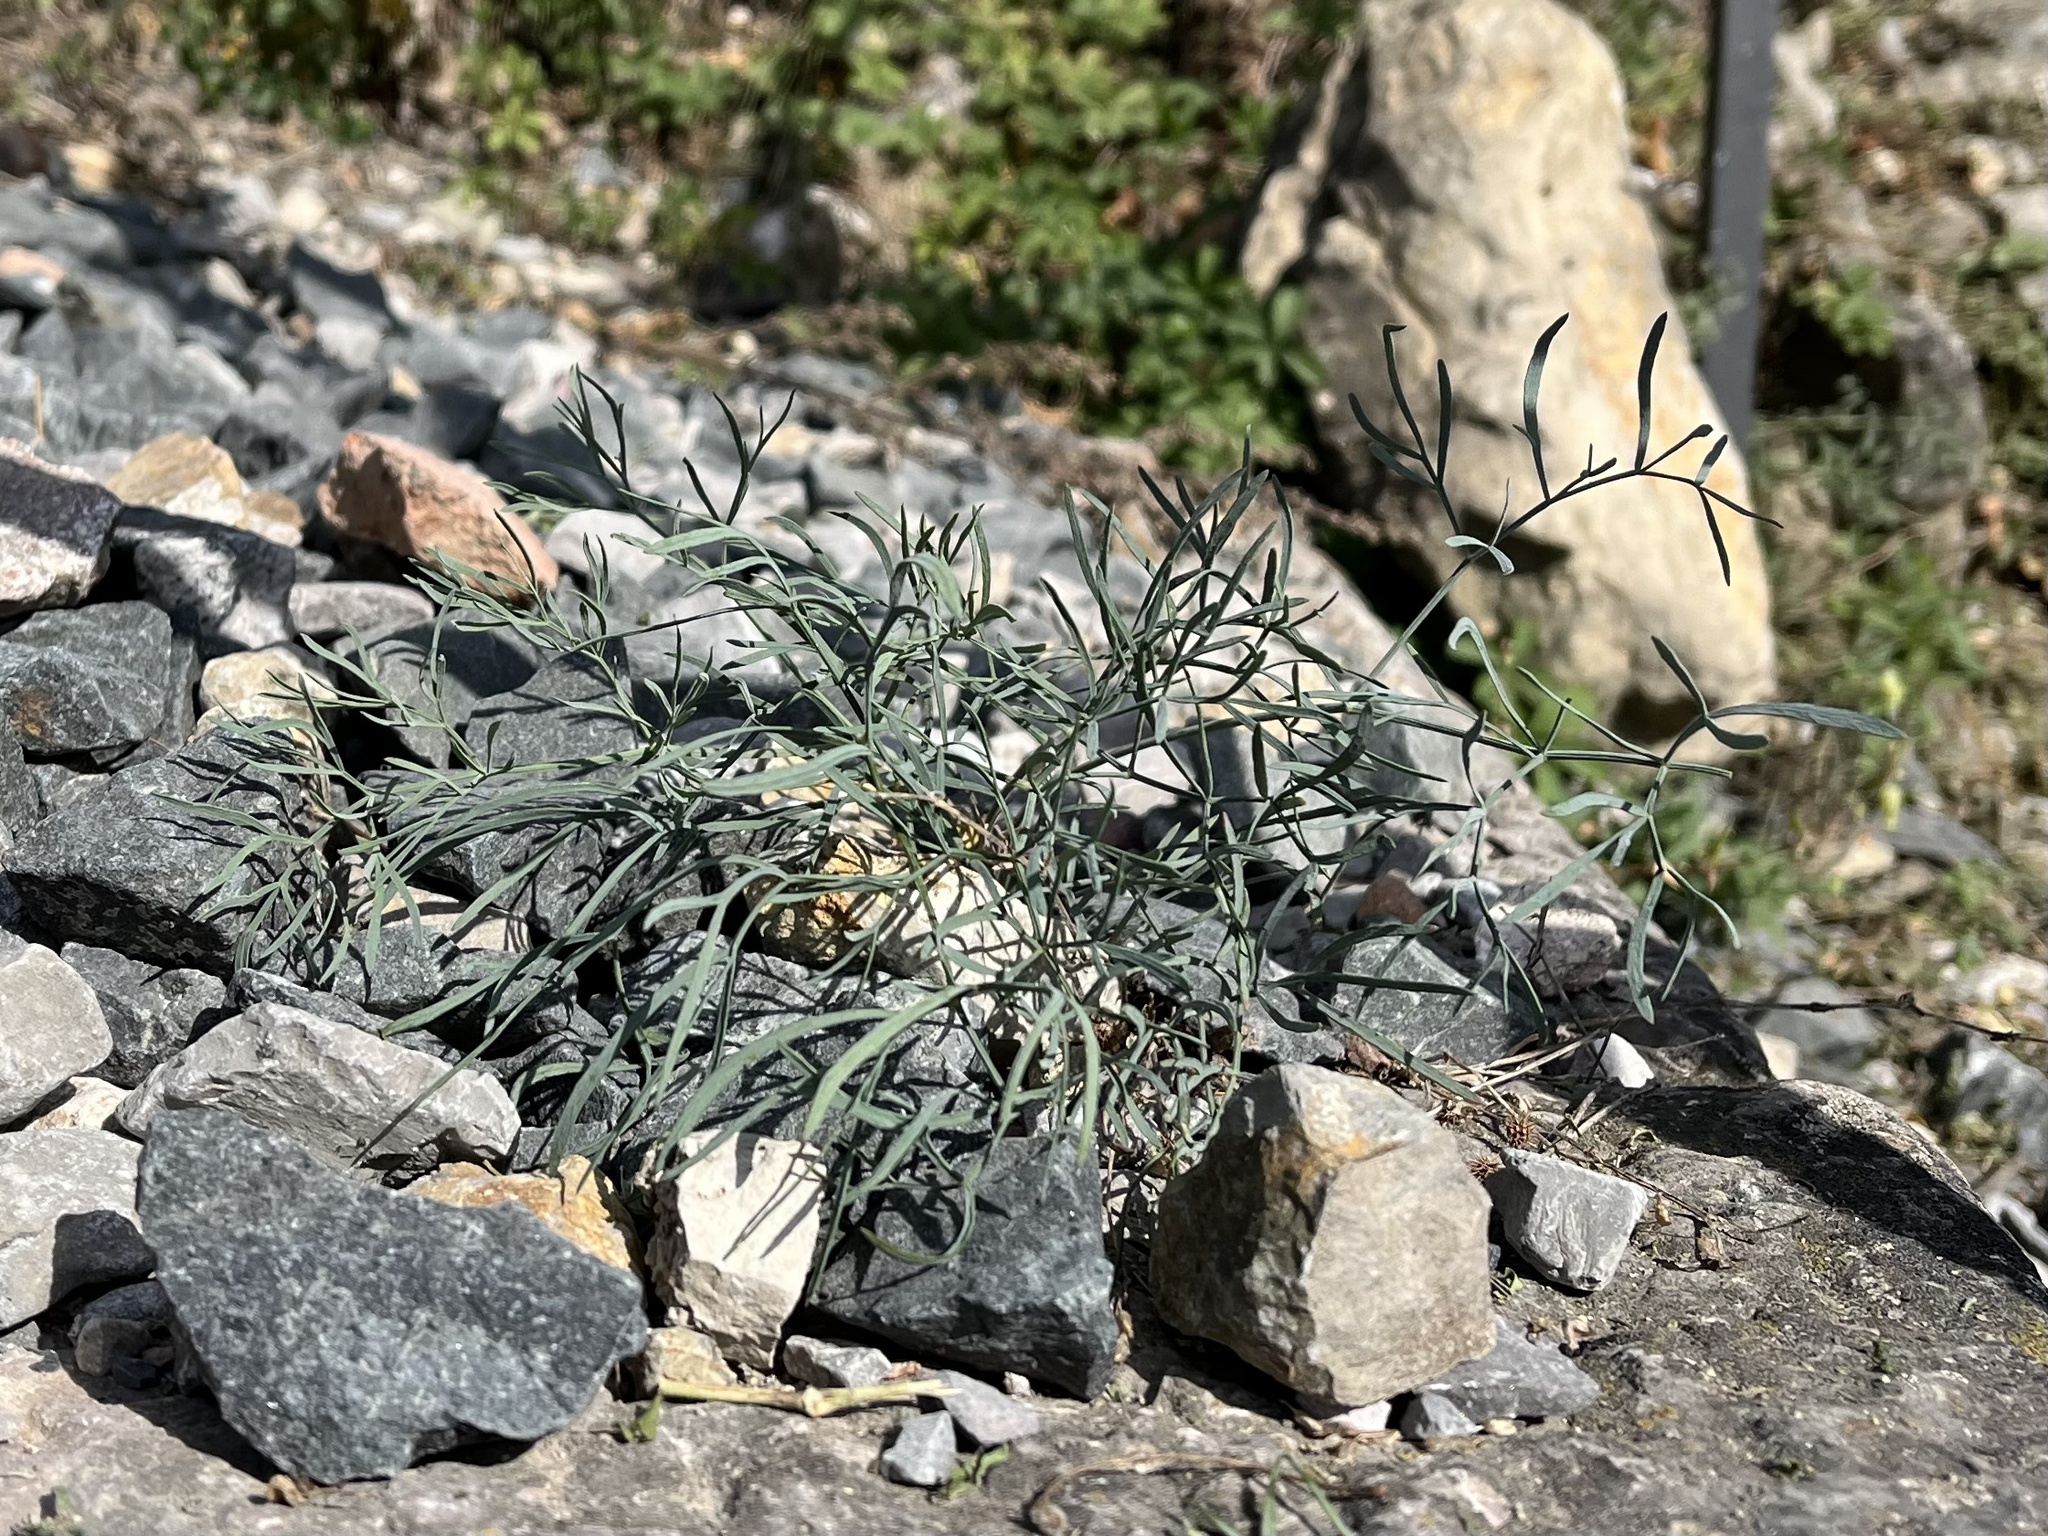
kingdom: Plantae
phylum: Tracheophyta
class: Magnoliopsida
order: Apiales
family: Apiaceae
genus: Seseli
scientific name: Seseli osseum
